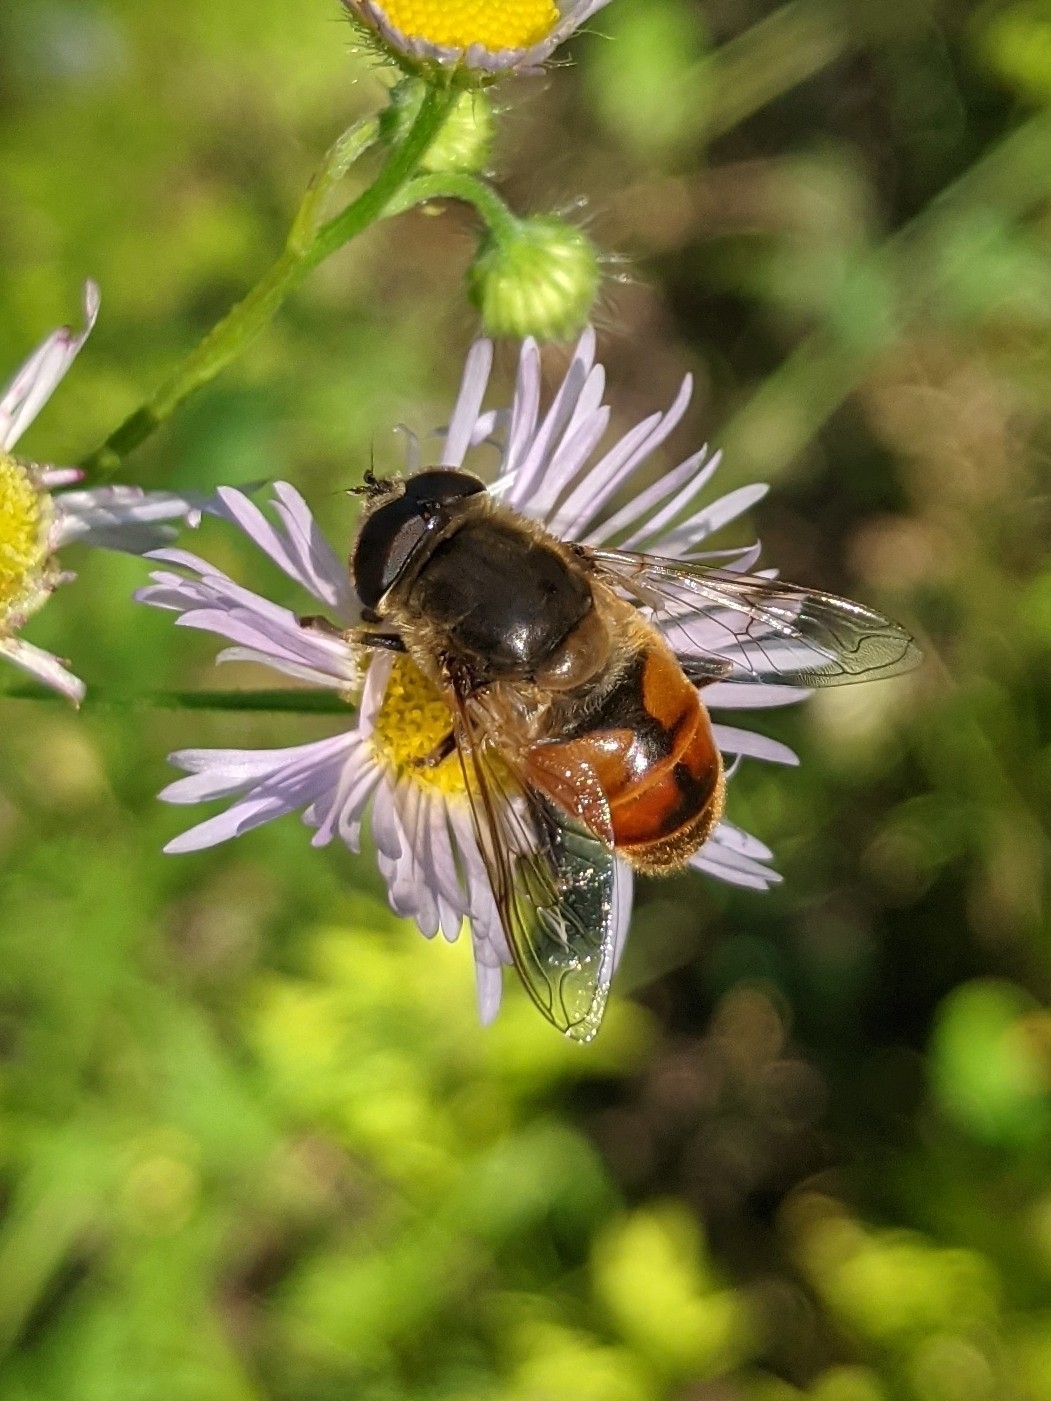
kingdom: Animalia
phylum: Arthropoda
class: Insecta
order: Diptera
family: Syrphidae
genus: Eristalis
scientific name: Eristalis tenax
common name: Drone fly
